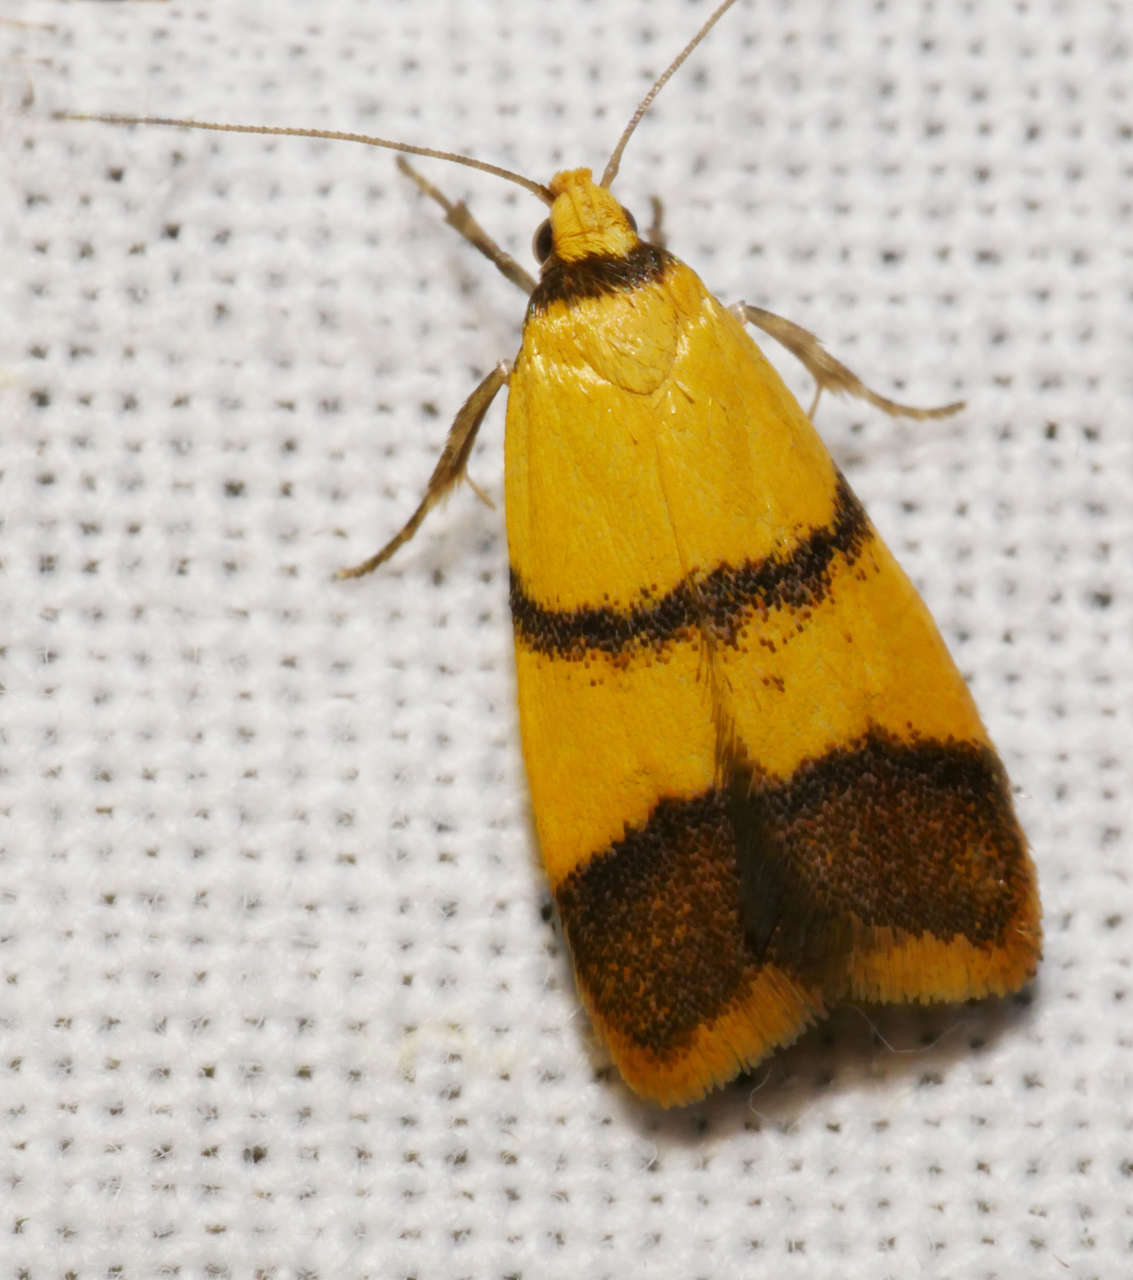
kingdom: Animalia
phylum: Arthropoda
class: Insecta
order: Lepidoptera
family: Oecophoridae
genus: Heteroteucha
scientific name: Heteroteucha translatella
